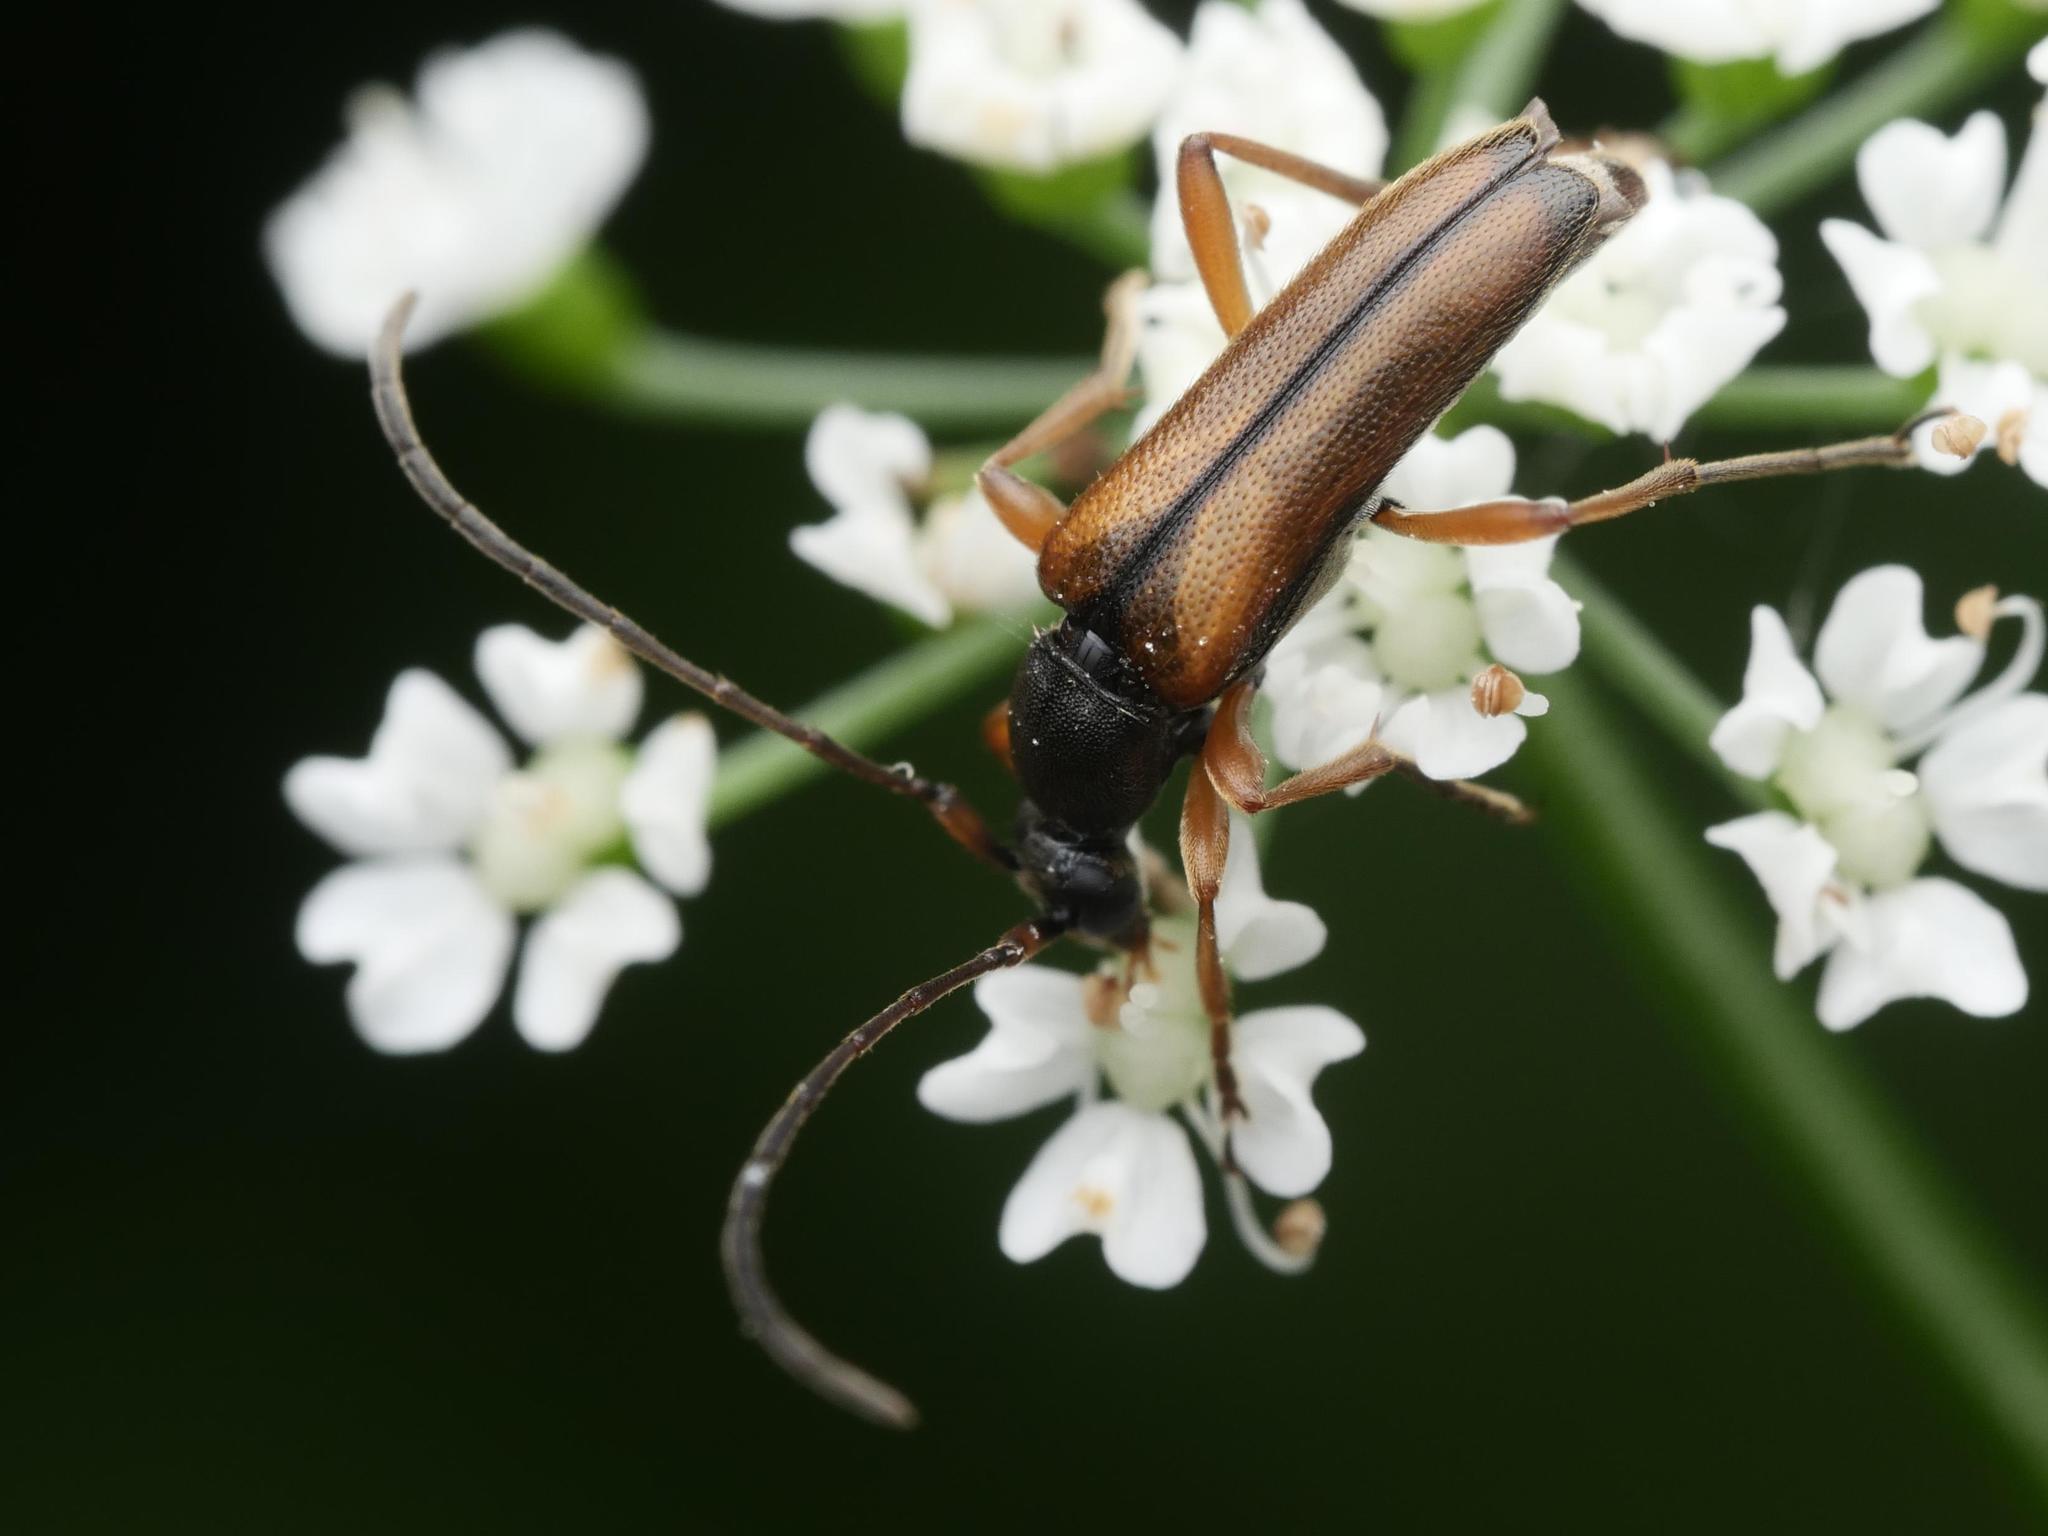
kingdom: Animalia
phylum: Arthropoda
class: Insecta
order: Coleoptera
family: Cerambycidae
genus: Alosterna
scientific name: Alosterna tabacicolor
